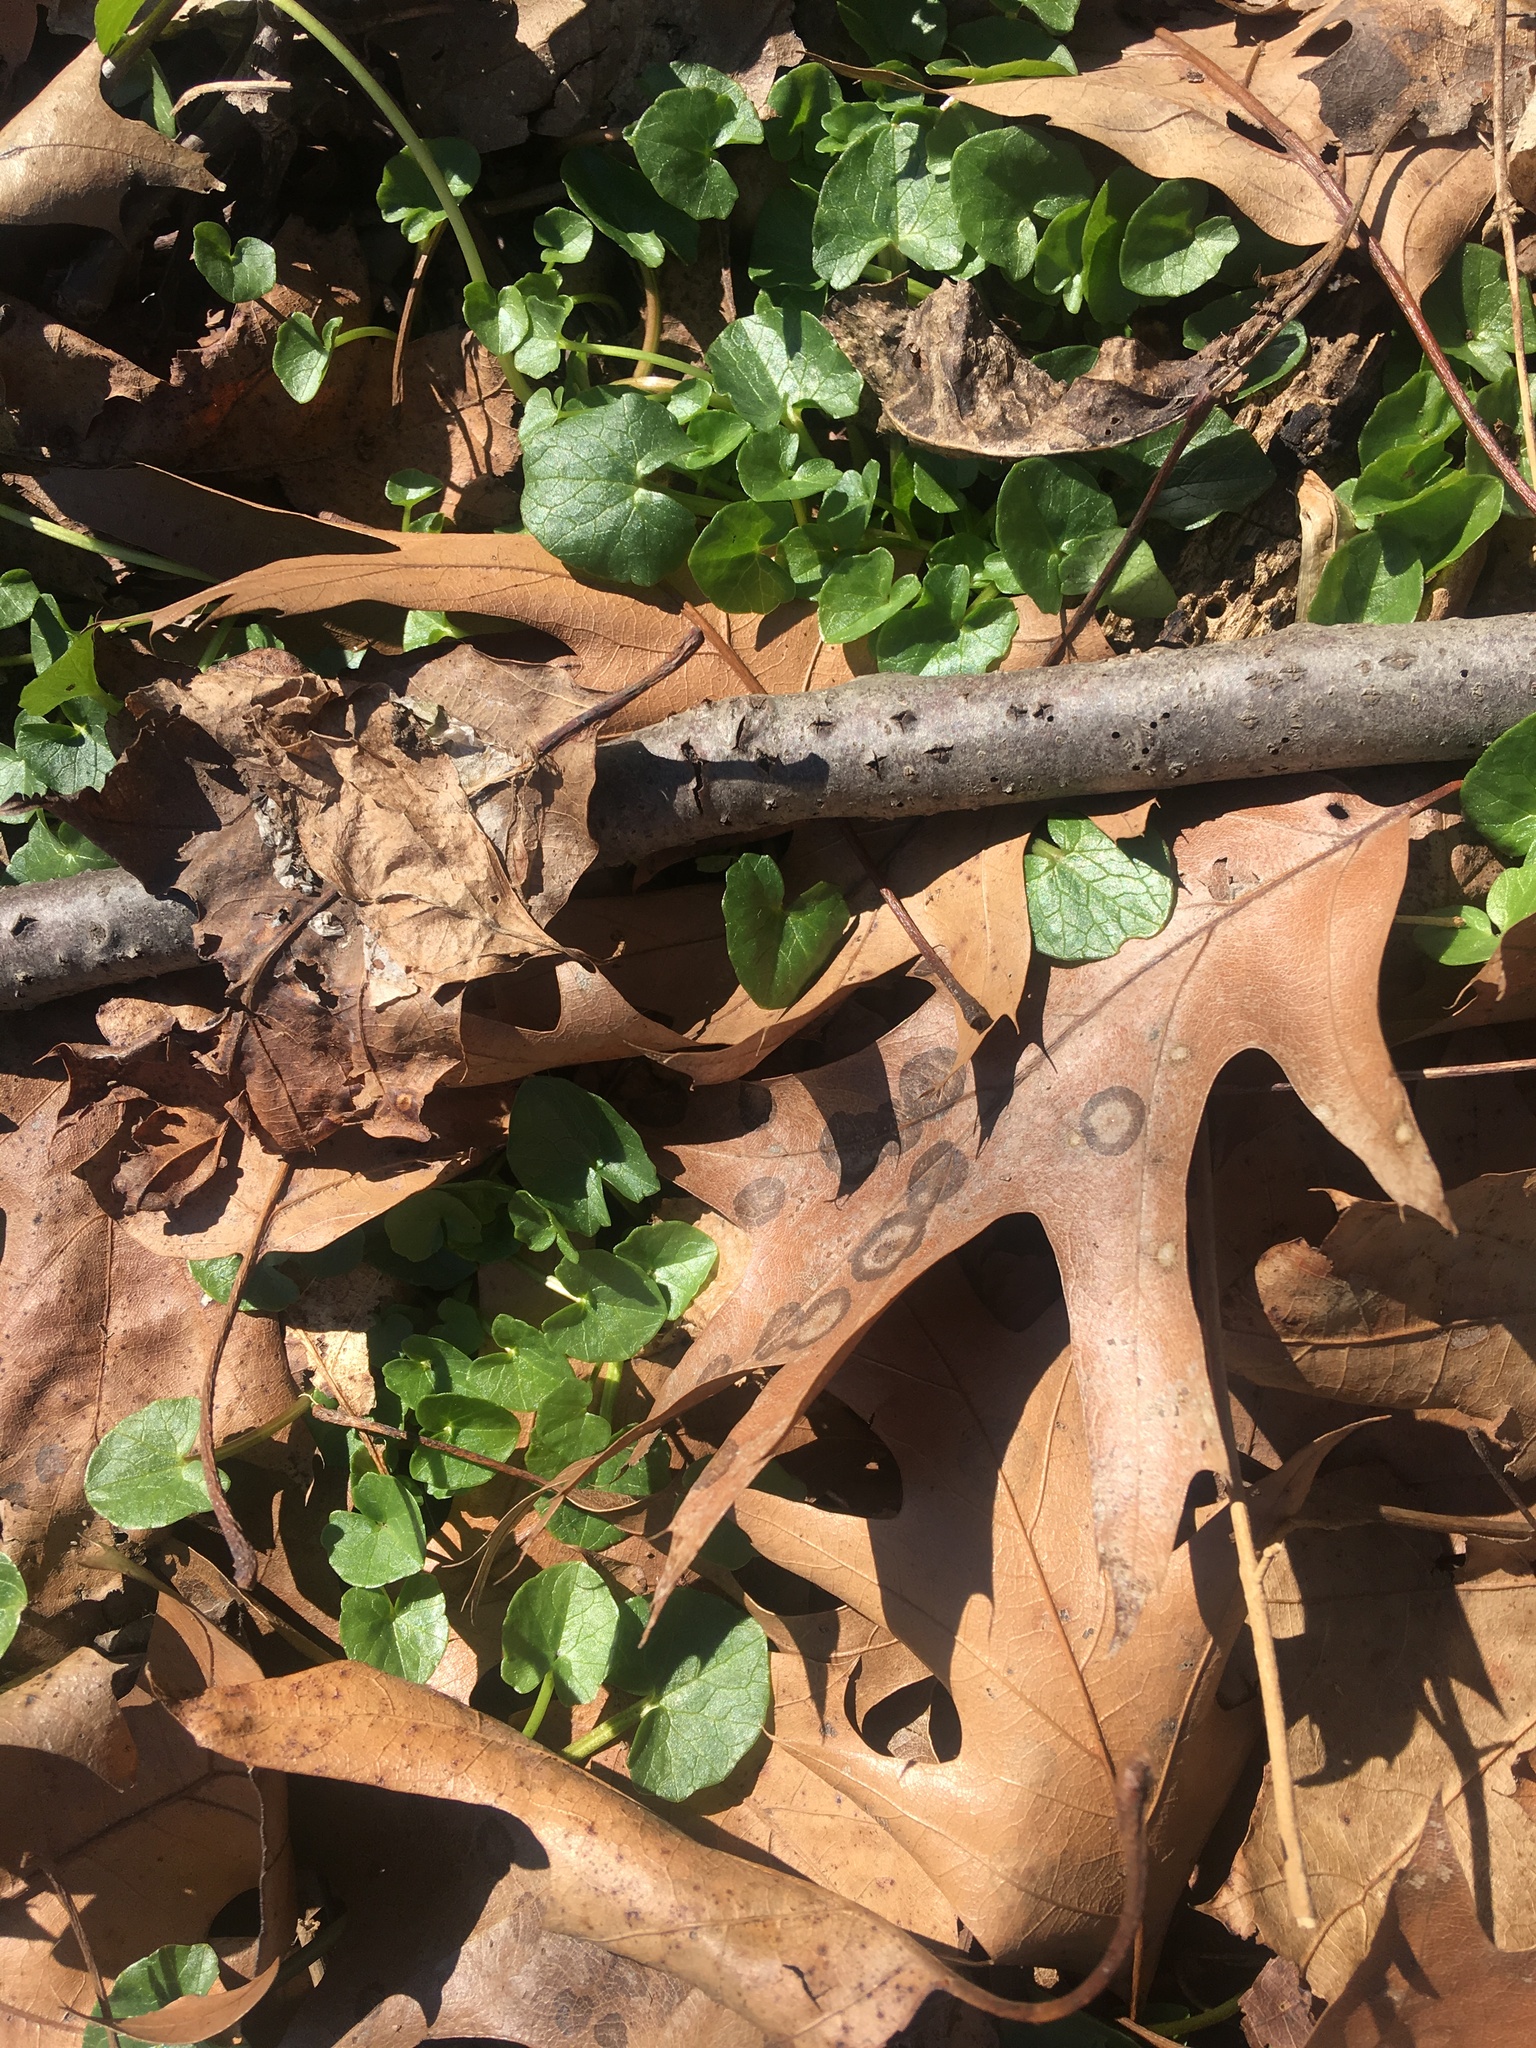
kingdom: Plantae
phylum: Tracheophyta
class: Magnoliopsida
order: Ranunculales
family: Ranunculaceae
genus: Ficaria
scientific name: Ficaria verna
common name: Lesser celandine
